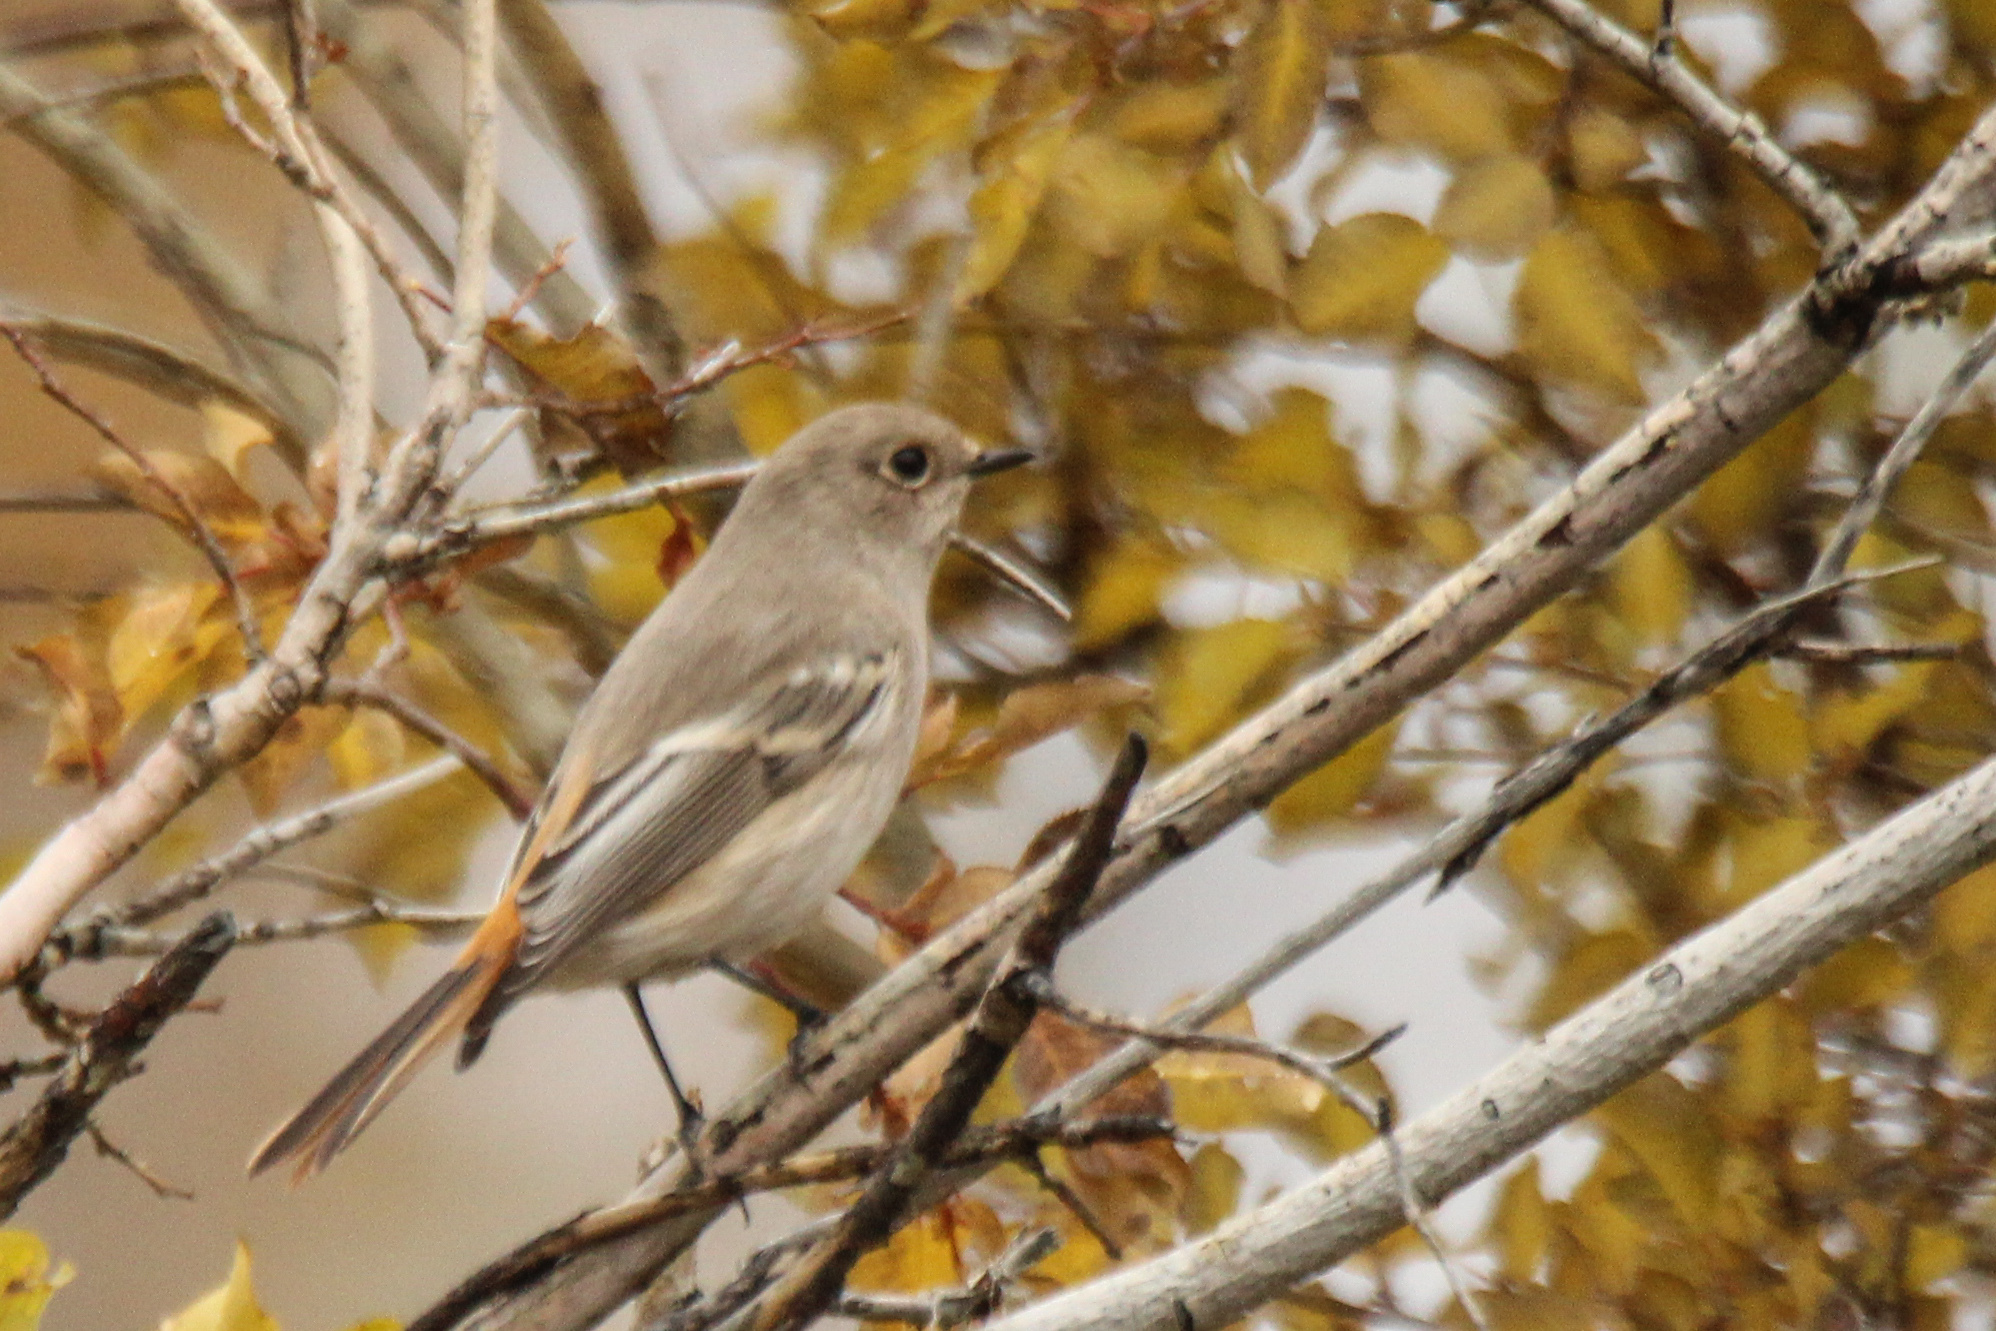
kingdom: Animalia
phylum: Chordata
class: Aves
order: Passeriformes
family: Muscicapidae
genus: Phoenicurus
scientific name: Phoenicurus erythronotus
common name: Eversmann's redstart
